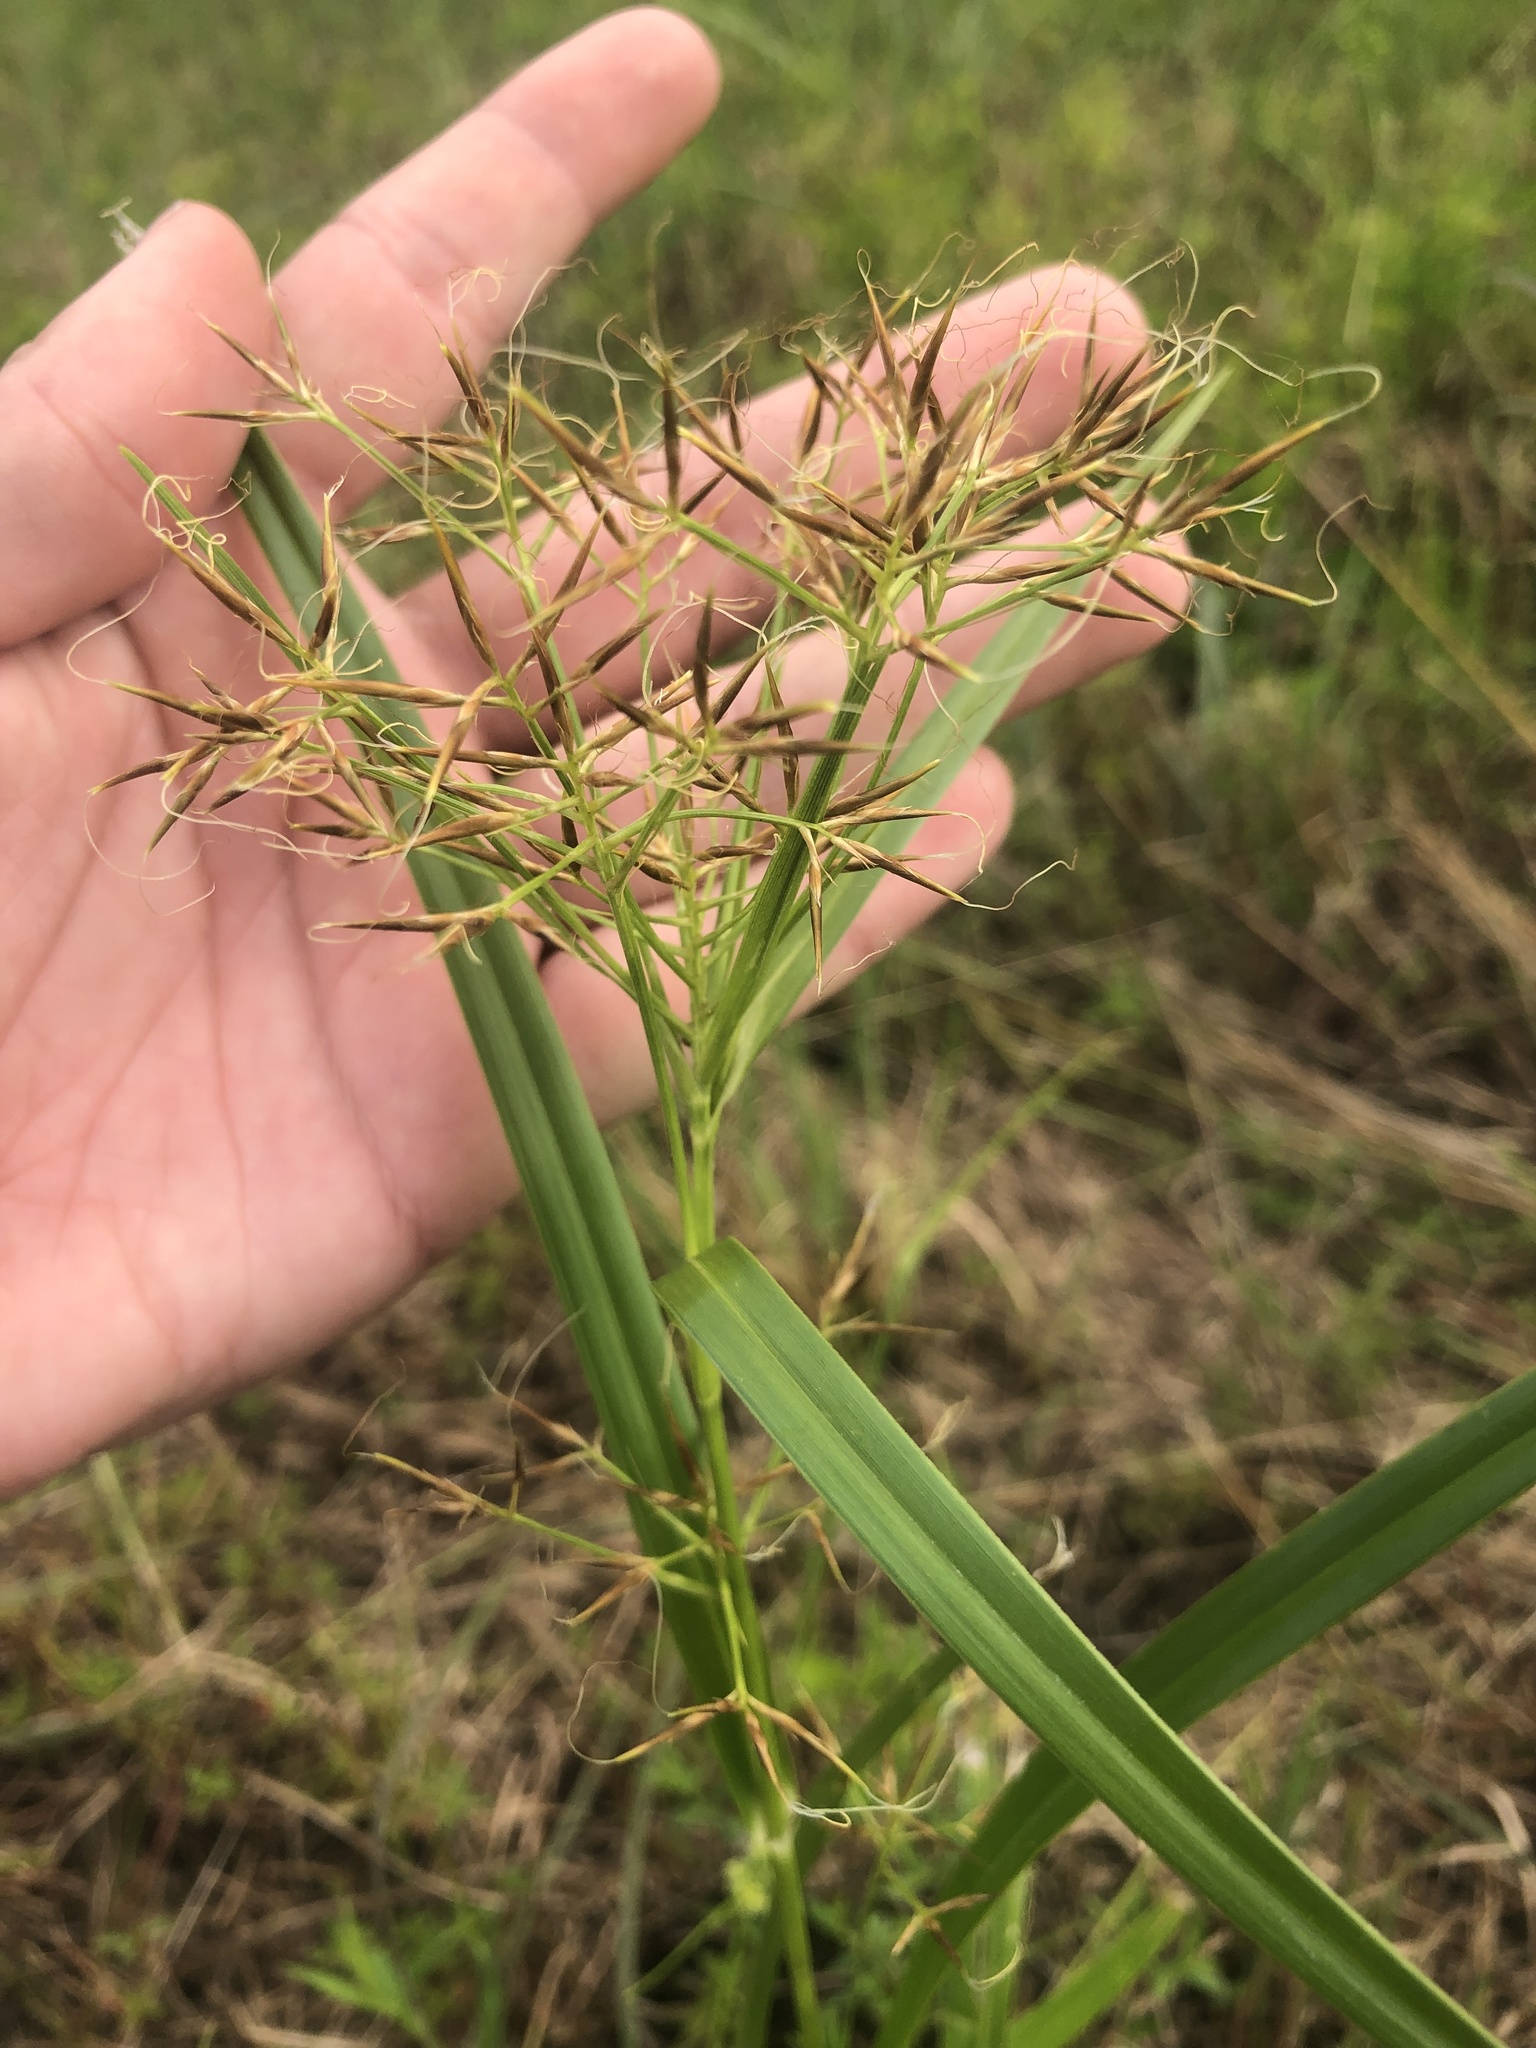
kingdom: Plantae
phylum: Tracheophyta
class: Liliopsida
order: Poales
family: Cyperaceae
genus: Rhynchospora
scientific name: Rhynchospora corniculata
